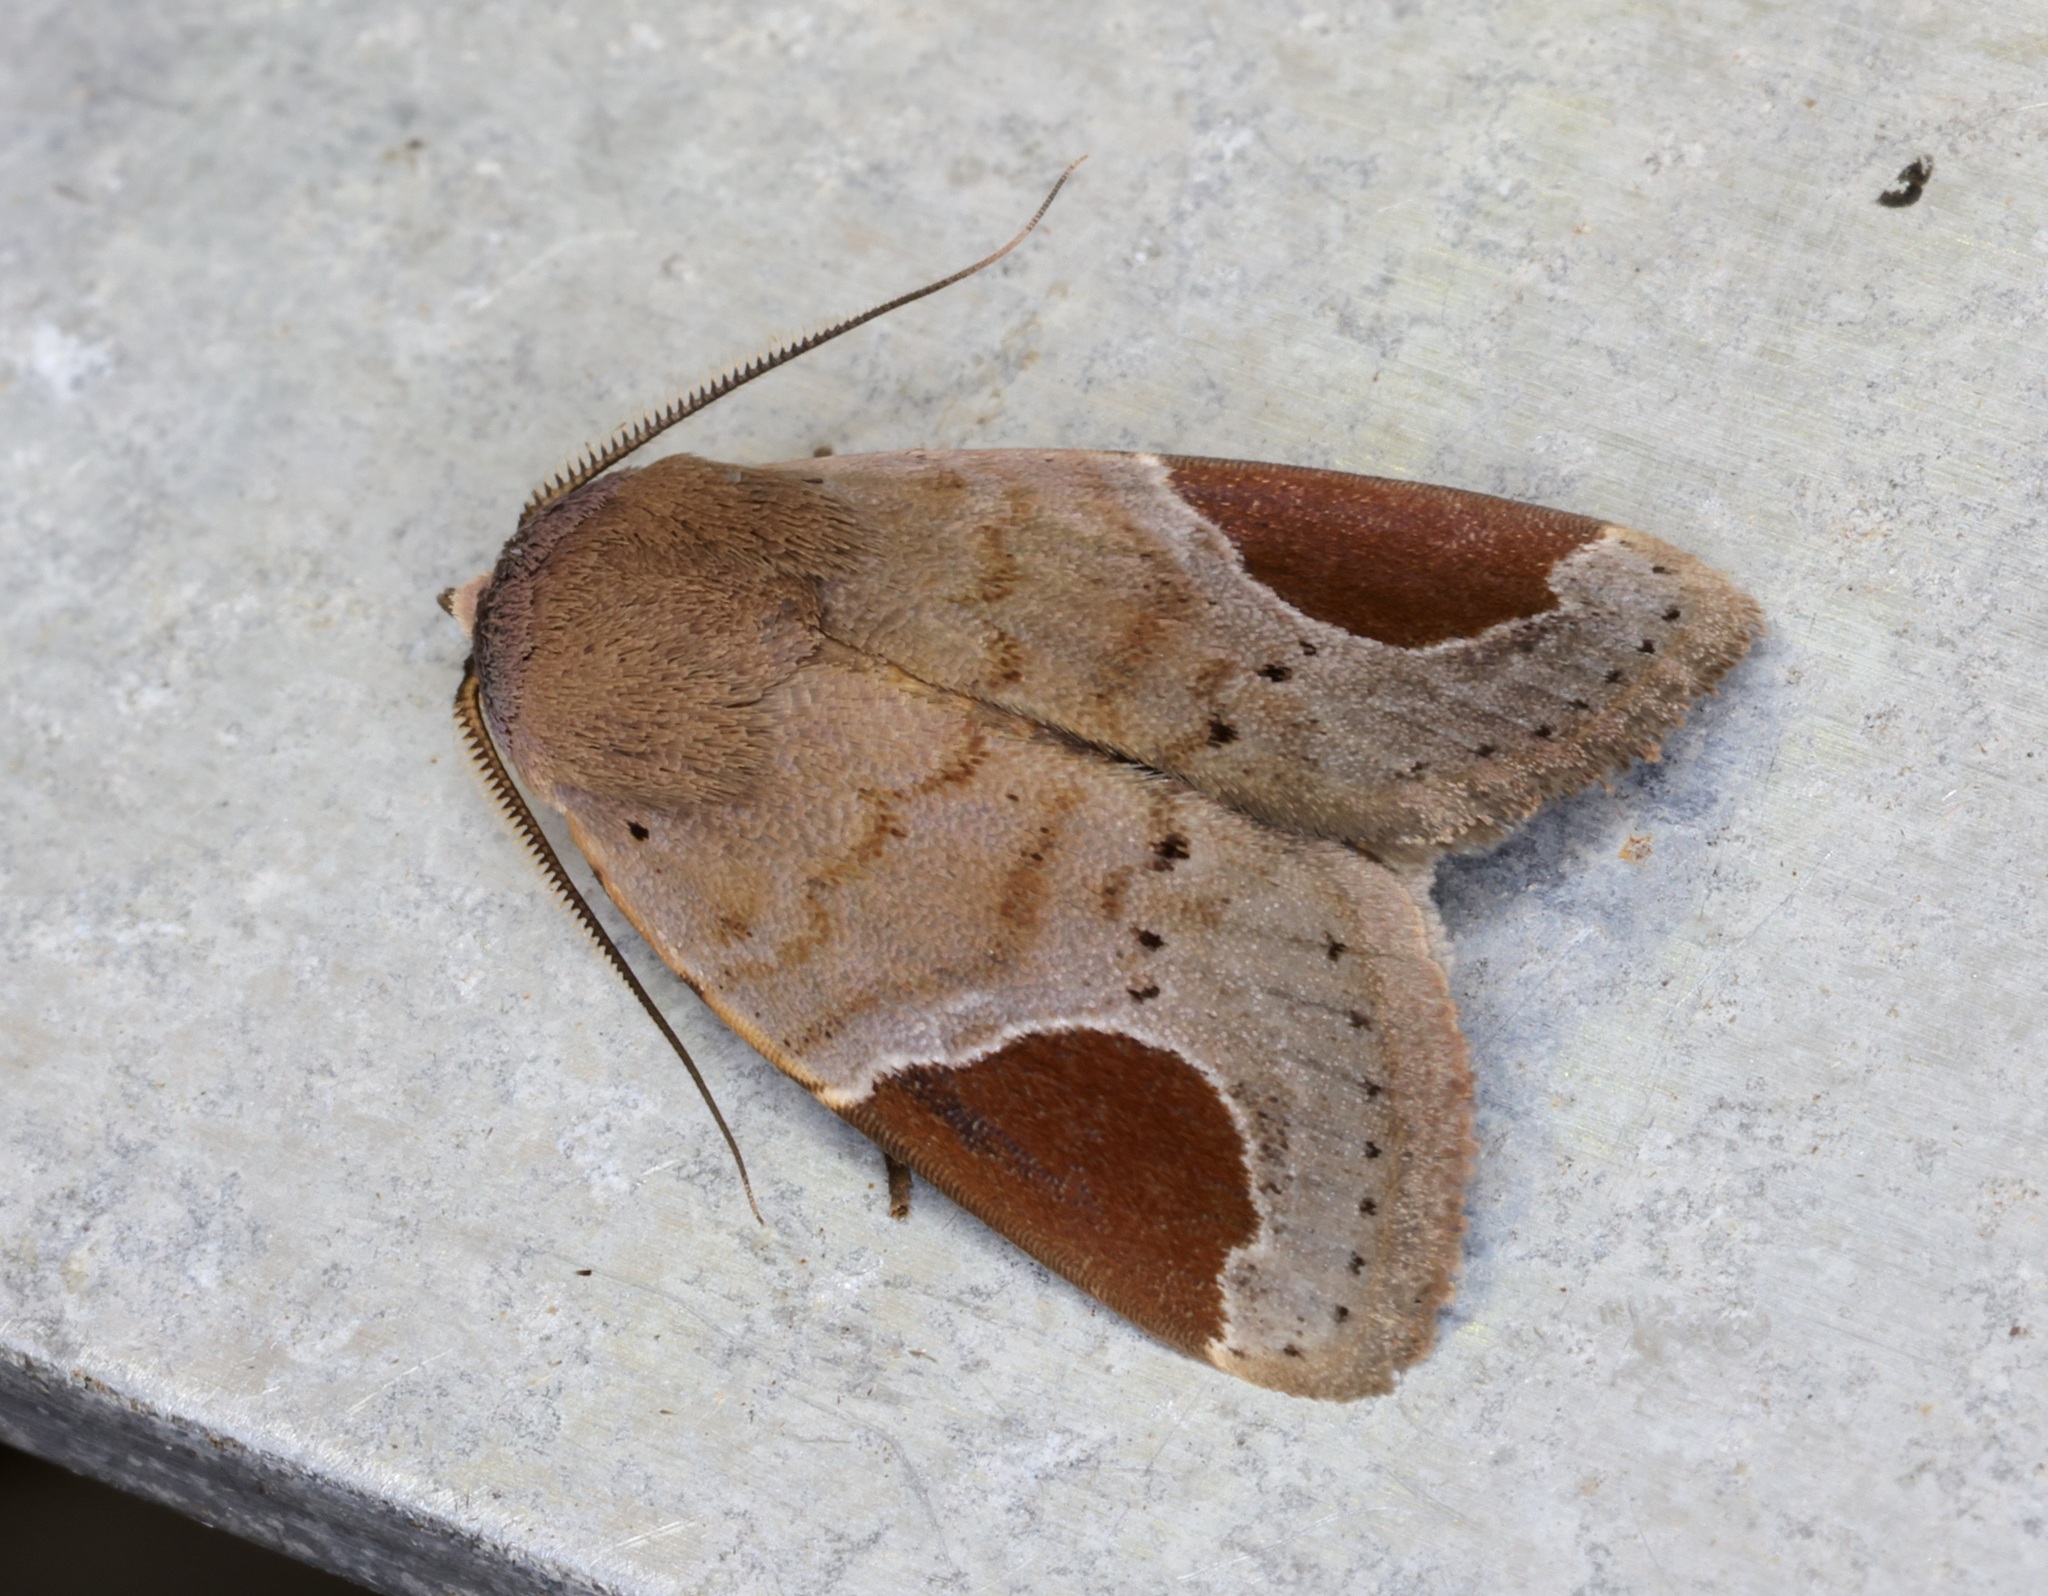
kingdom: Animalia
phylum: Arthropoda
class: Insecta
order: Lepidoptera
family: Noctuidae
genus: Dyrzela
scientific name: Dyrzela plagiata
